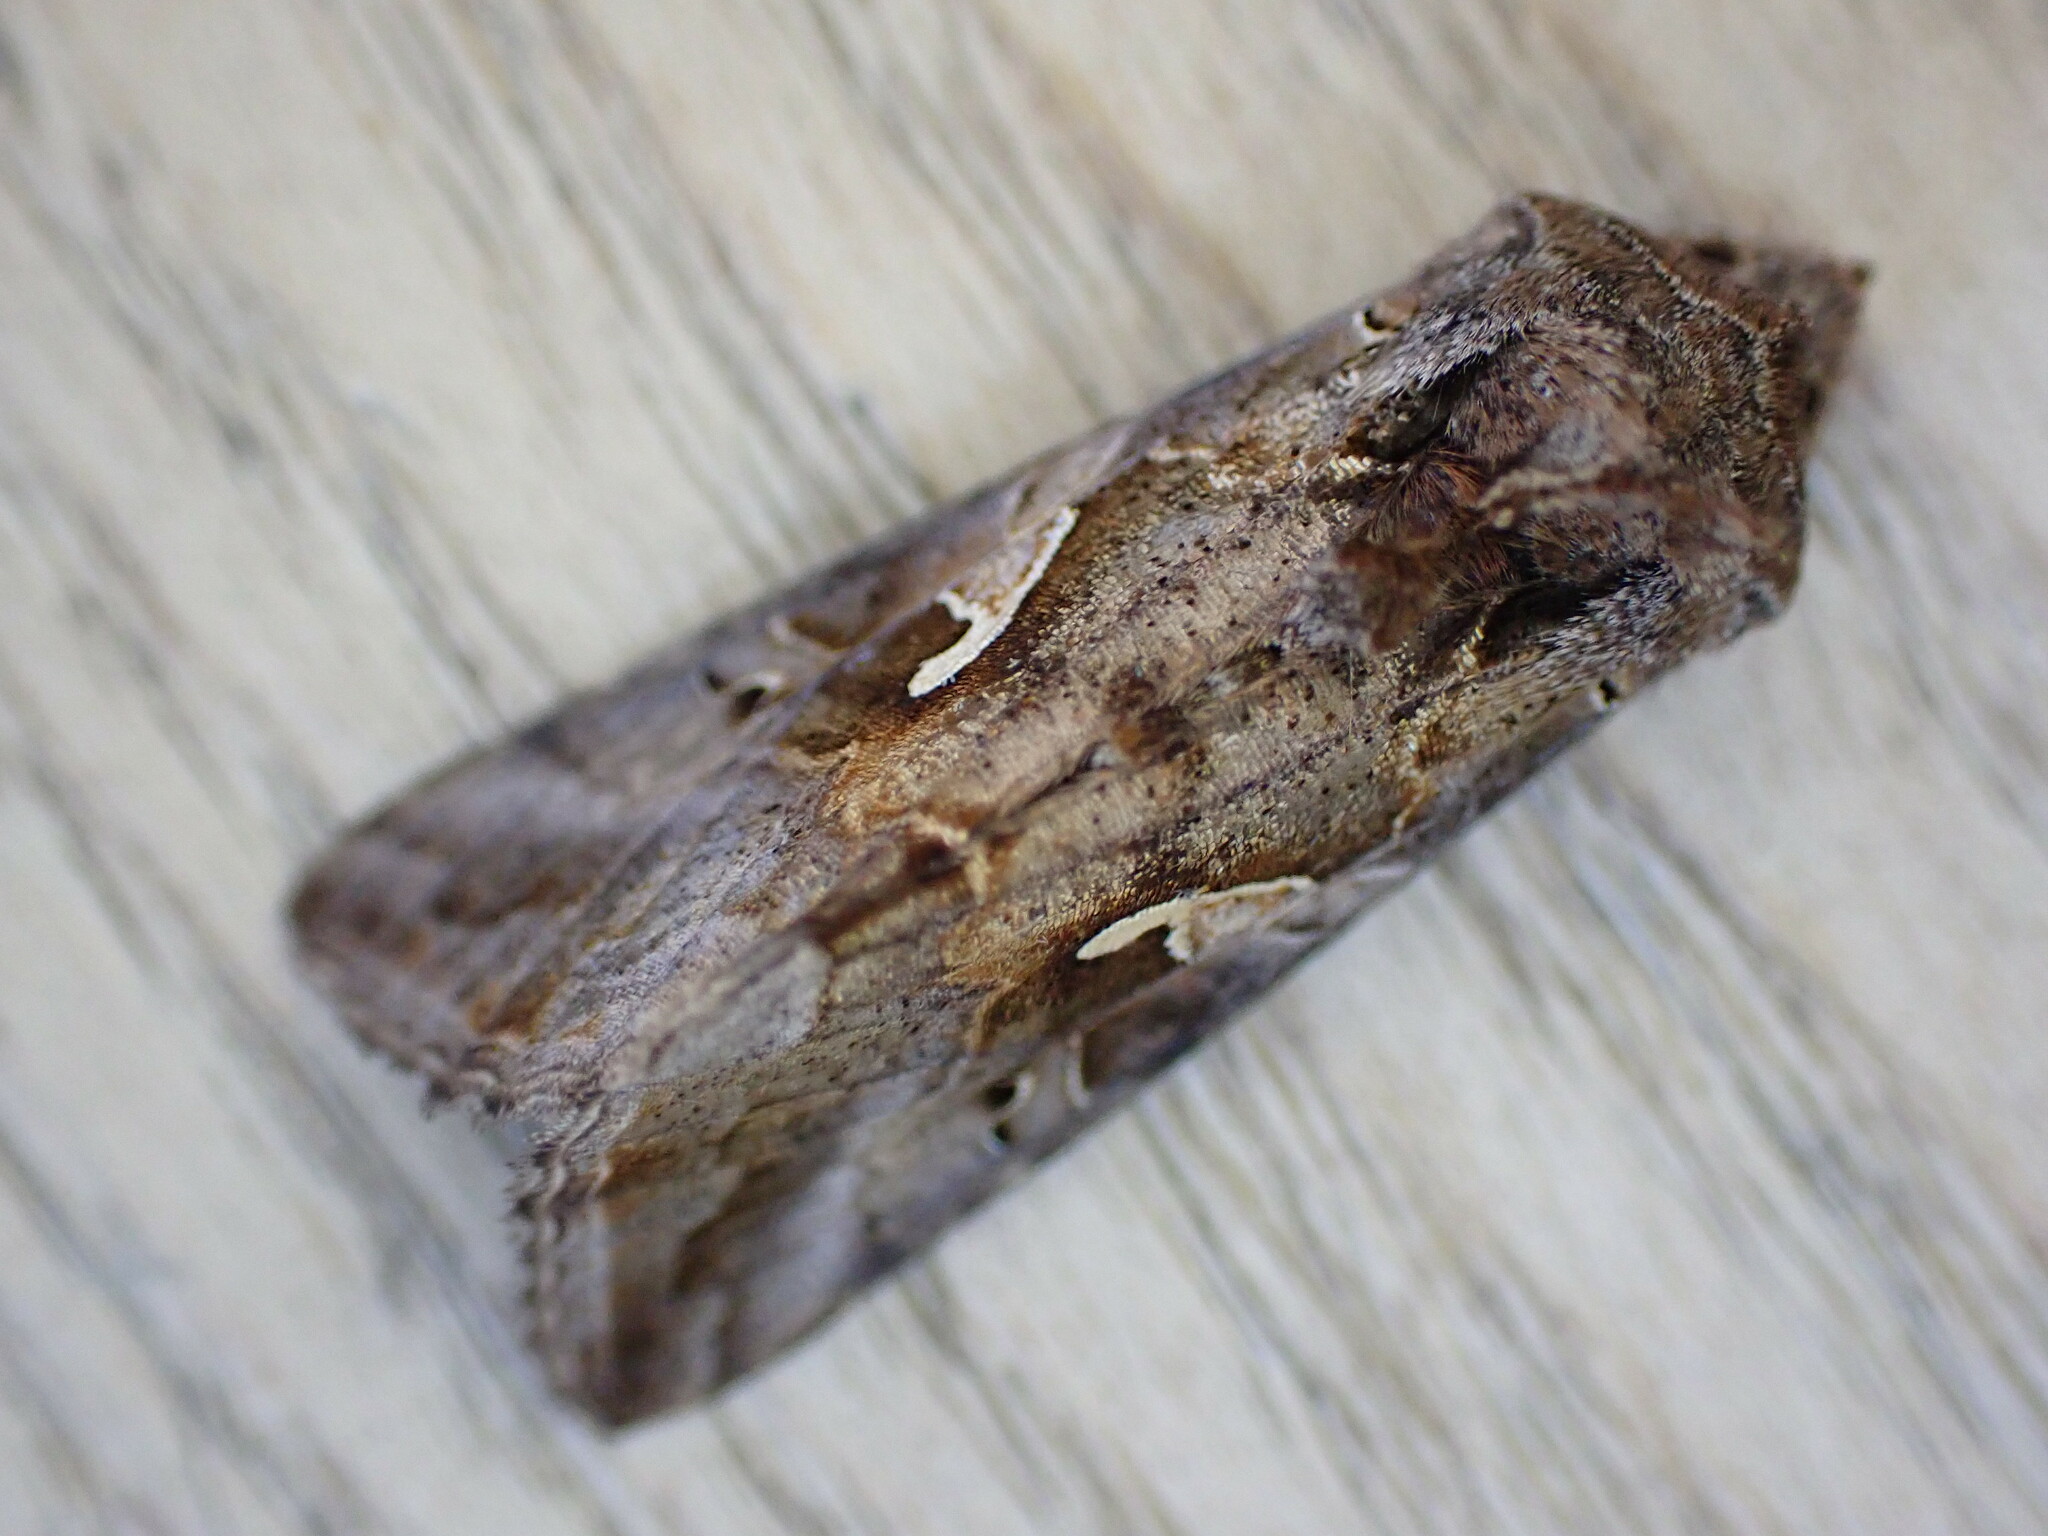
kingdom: Animalia
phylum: Arthropoda
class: Insecta
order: Lepidoptera
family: Noctuidae
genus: Autographa
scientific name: Autographa gamma
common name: Silver y
